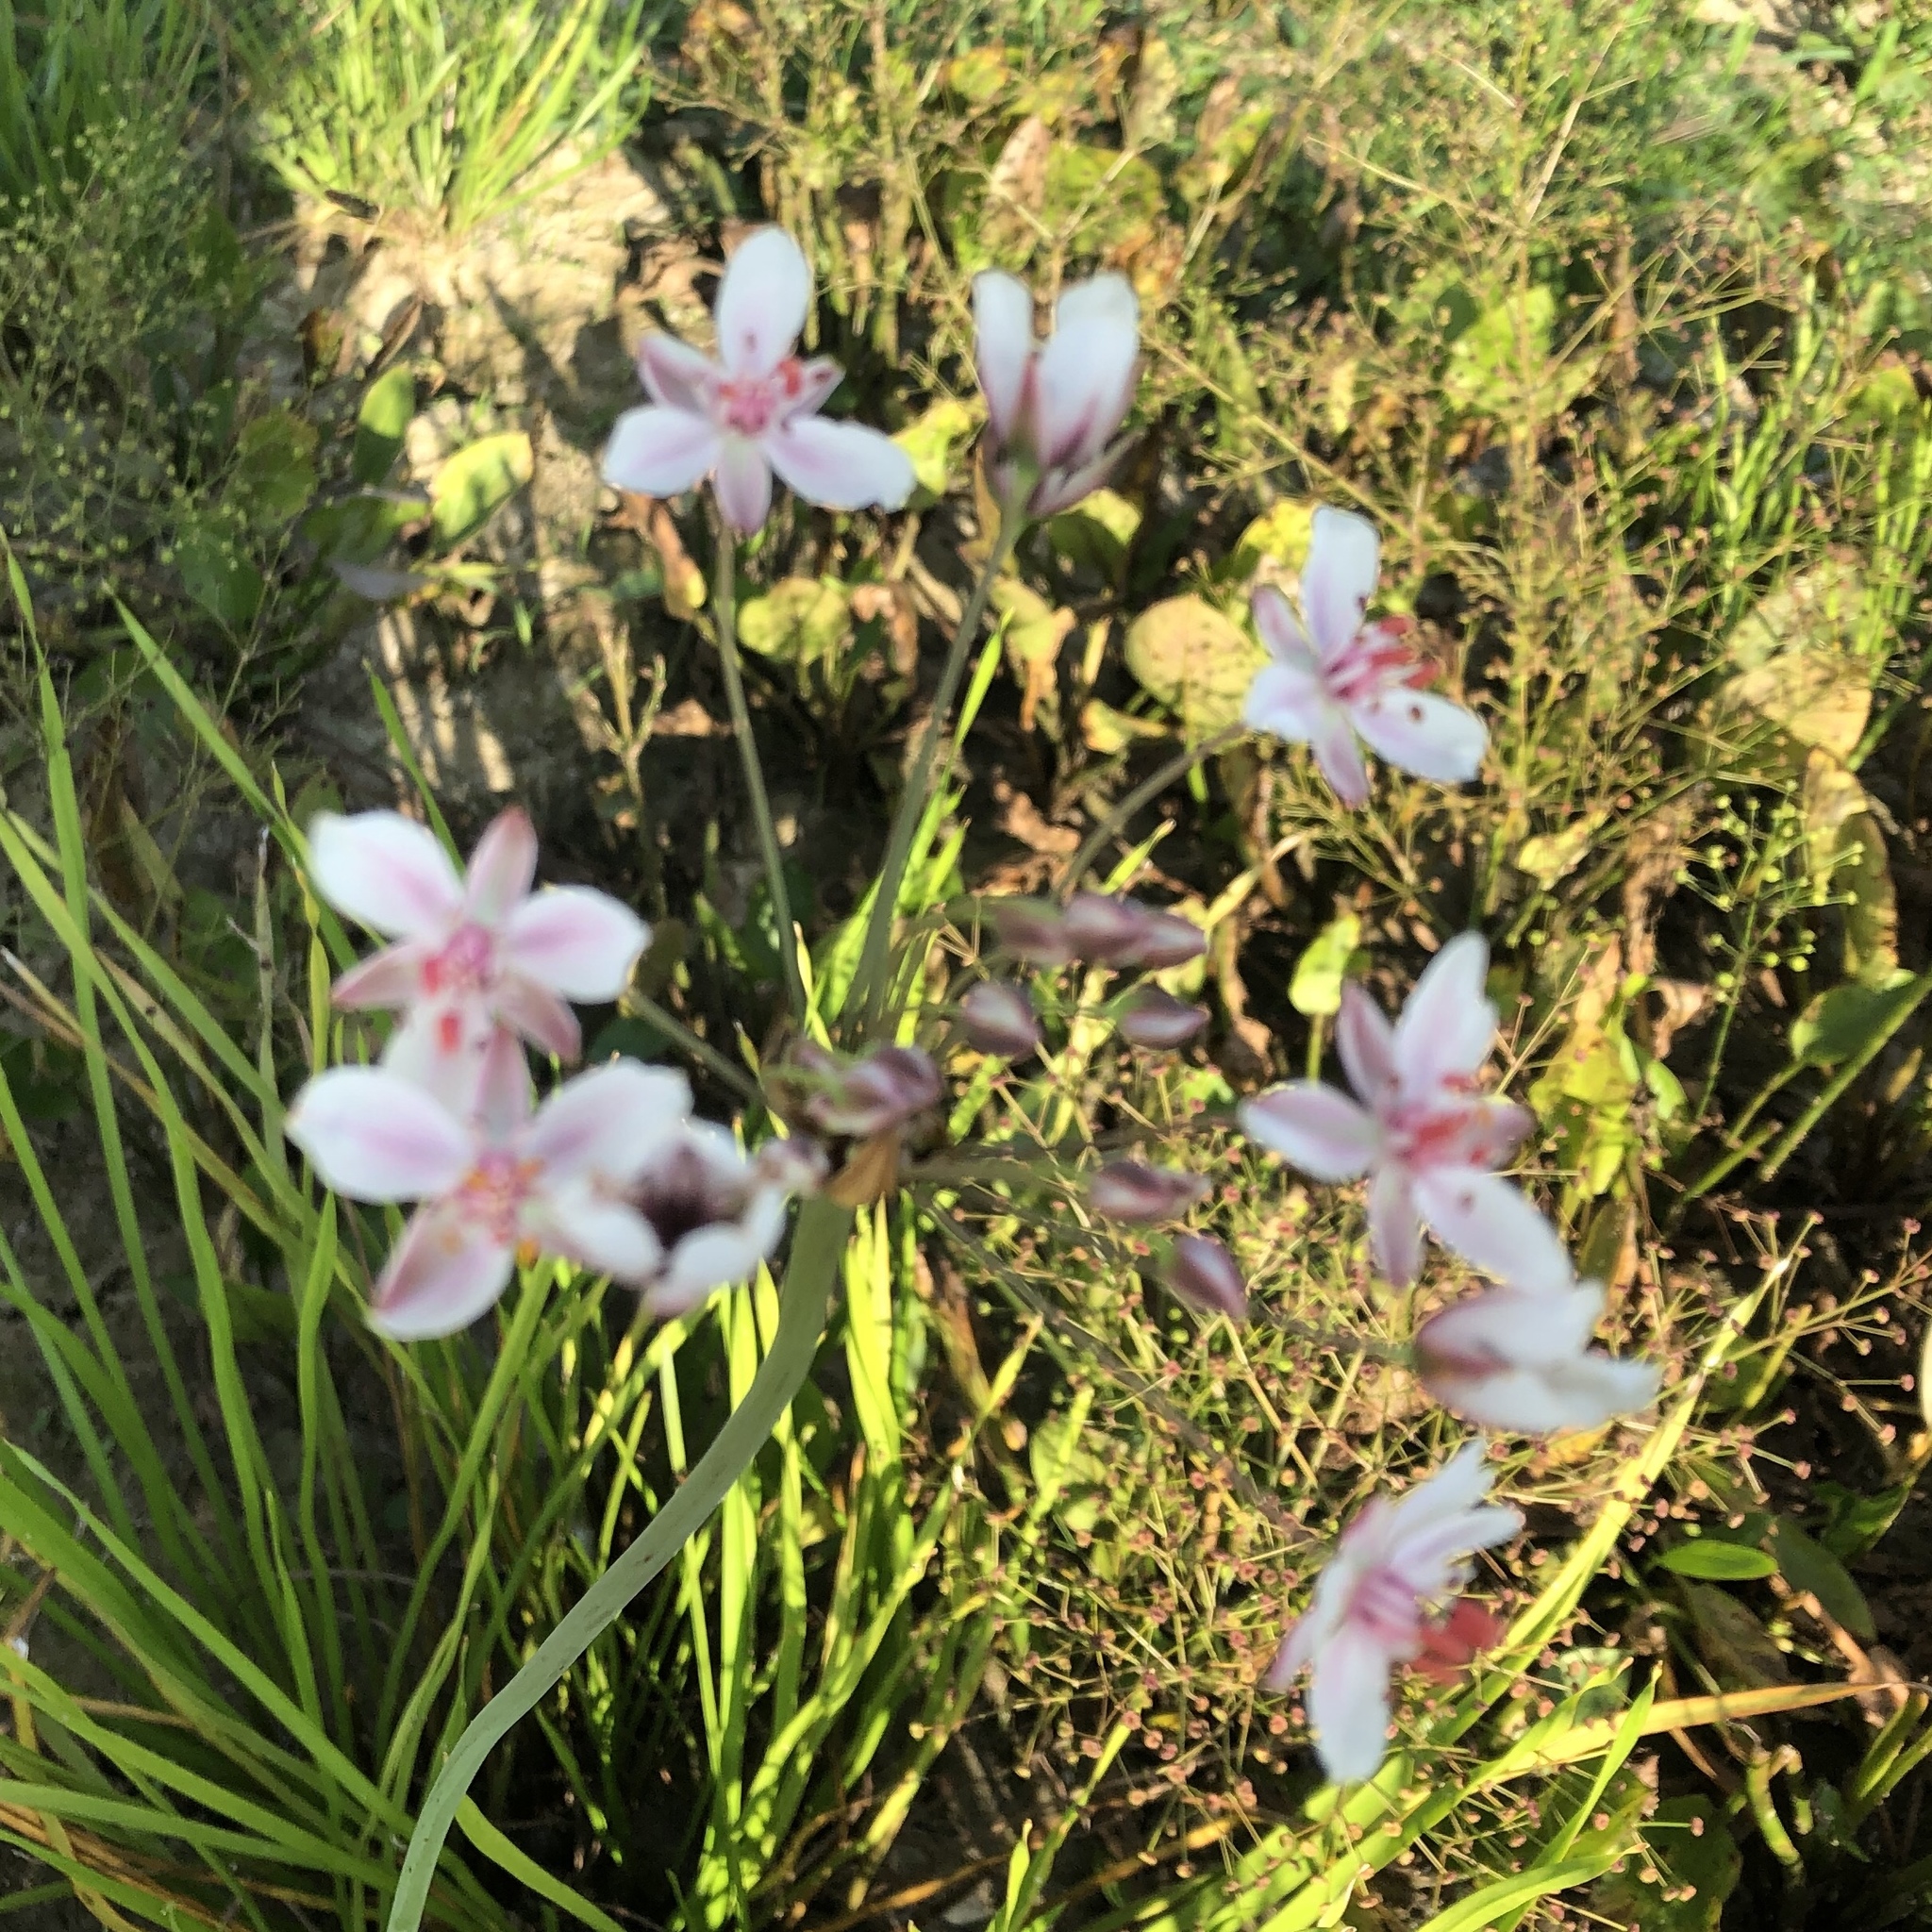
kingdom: Plantae
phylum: Tracheophyta
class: Liliopsida
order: Alismatales
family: Butomaceae
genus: Butomus
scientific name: Butomus umbellatus
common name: Flowering-rush
